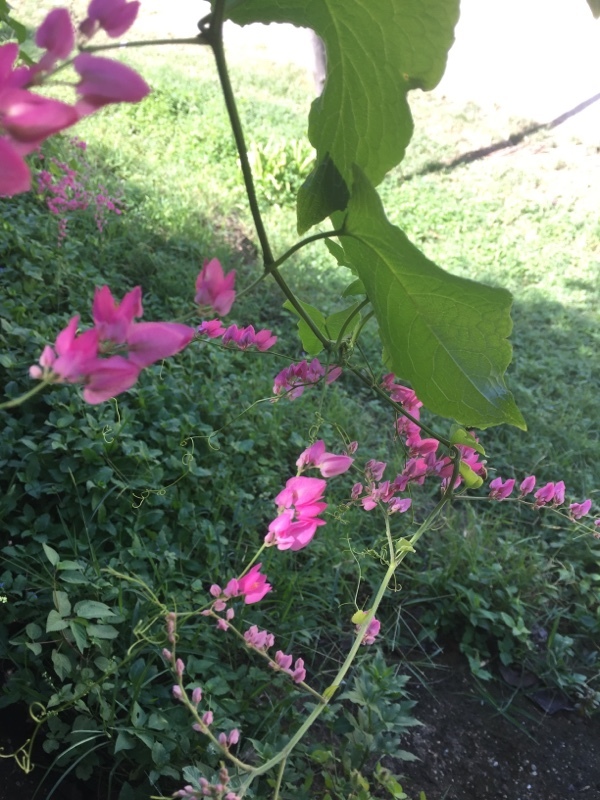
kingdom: Plantae
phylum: Tracheophyta
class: Magnoliopsida
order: Caryophyllales
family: Polygonaceae
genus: Antigonon
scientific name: Antigonon leptopus
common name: Coral vine
